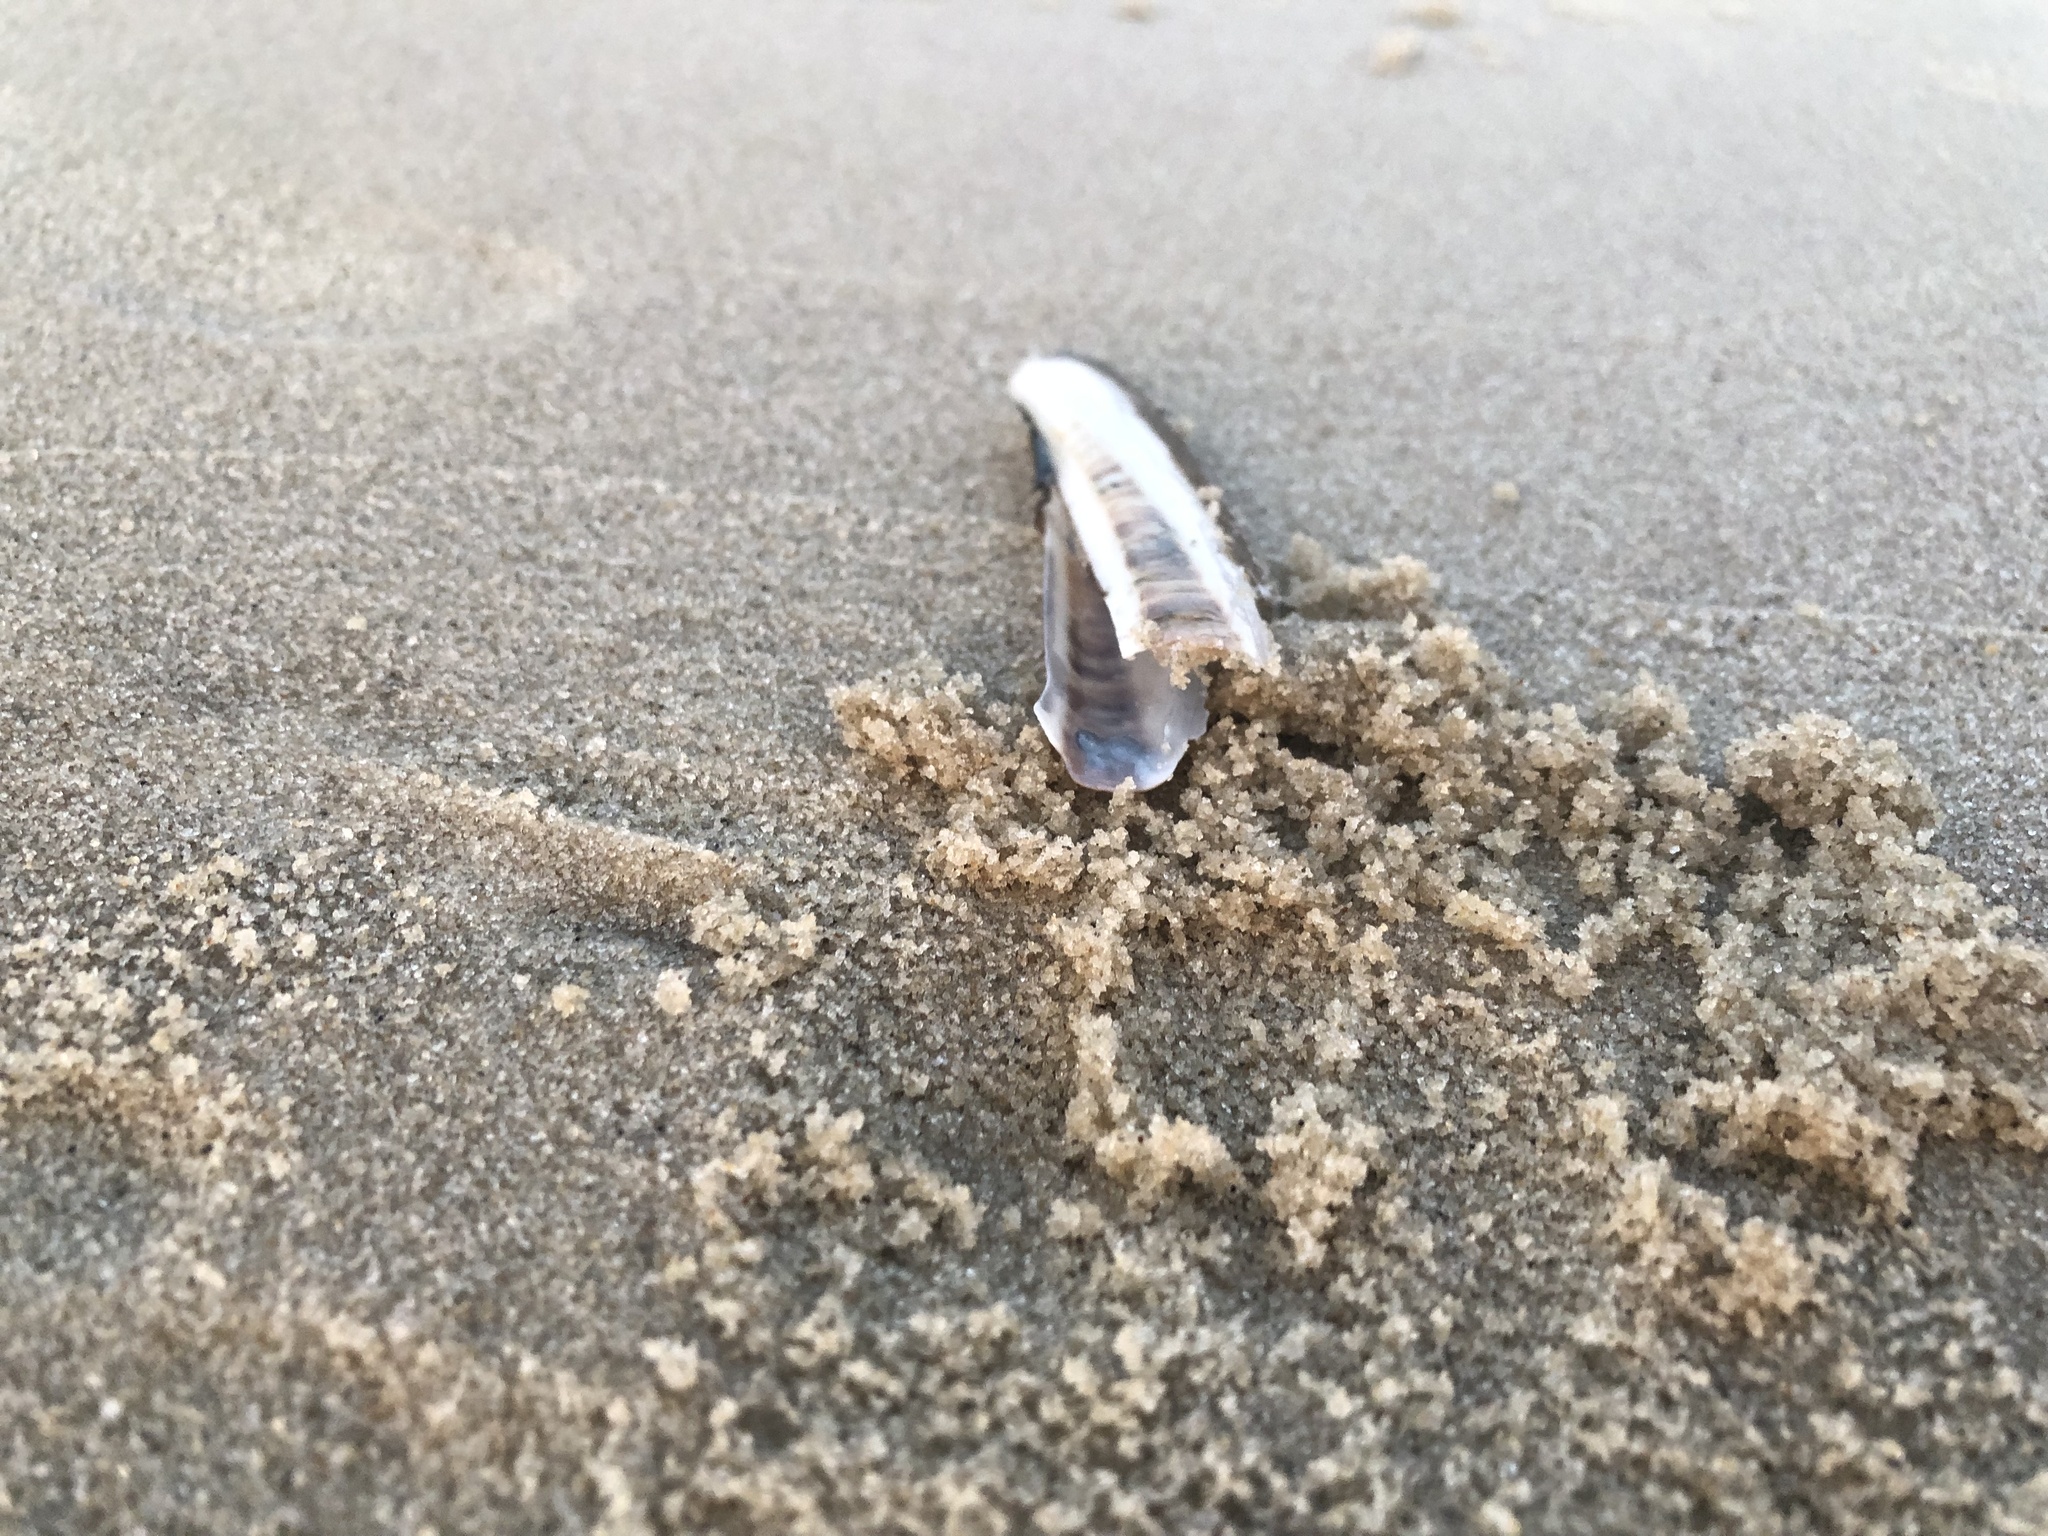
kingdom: Animalia
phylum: Mollusca
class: Bivalvia
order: Adapedonta
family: Pharidae
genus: Ensis
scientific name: Ensis leei
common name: American jack knife clam
